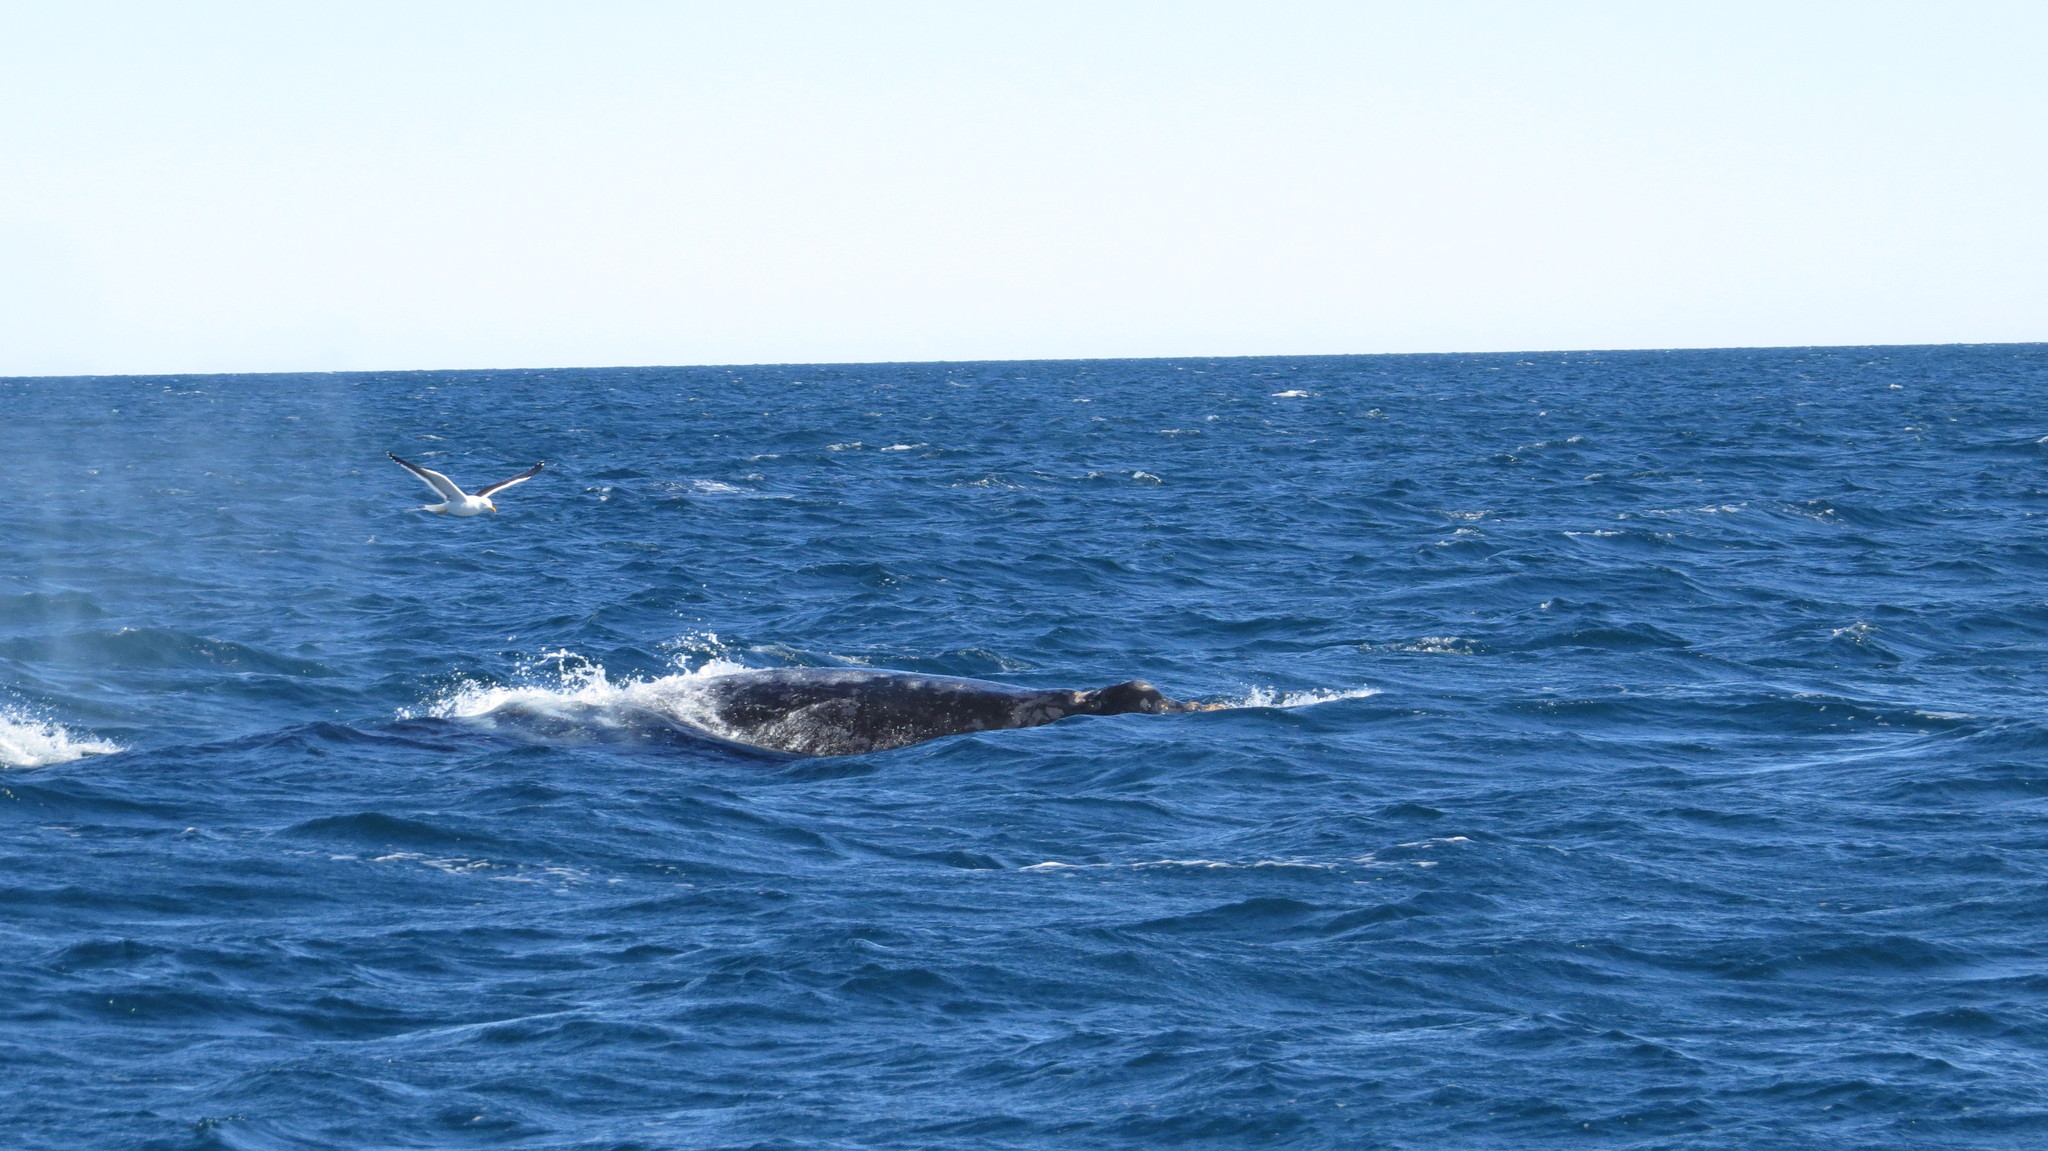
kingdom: Animalia
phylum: Chordata
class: Aves
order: Charadriiformes
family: Laridae
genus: Larus
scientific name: Larus dominicanus
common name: Kelp gull
